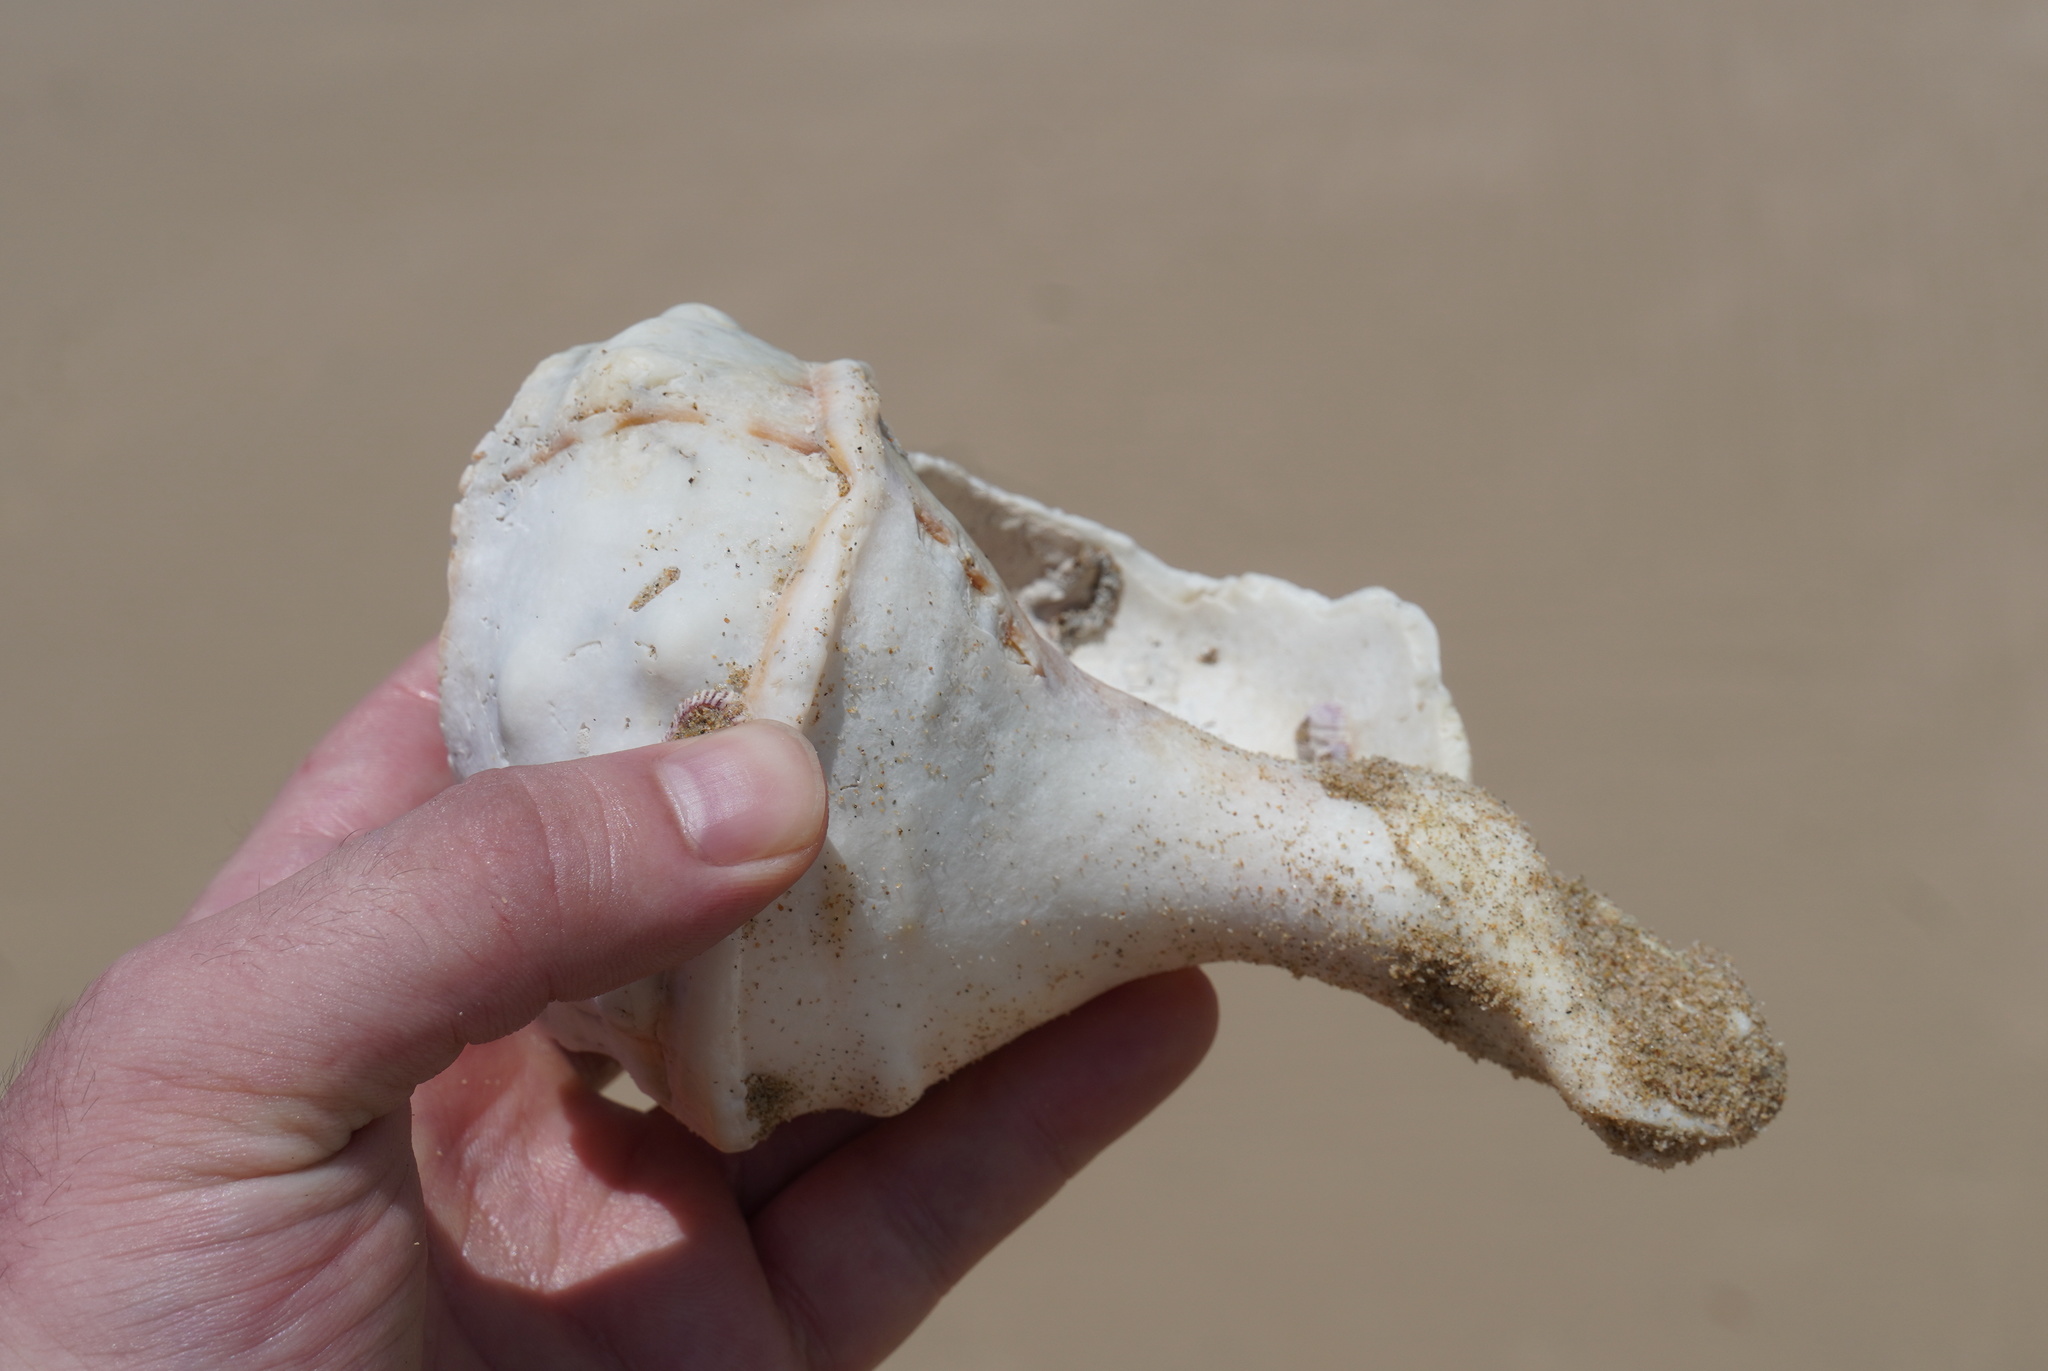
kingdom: Animalia
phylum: Mollusca
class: Gastropoda
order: Littorinimorpha
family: Charoniidae
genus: Charonia
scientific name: Charonia lampas
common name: Knobbed triton
